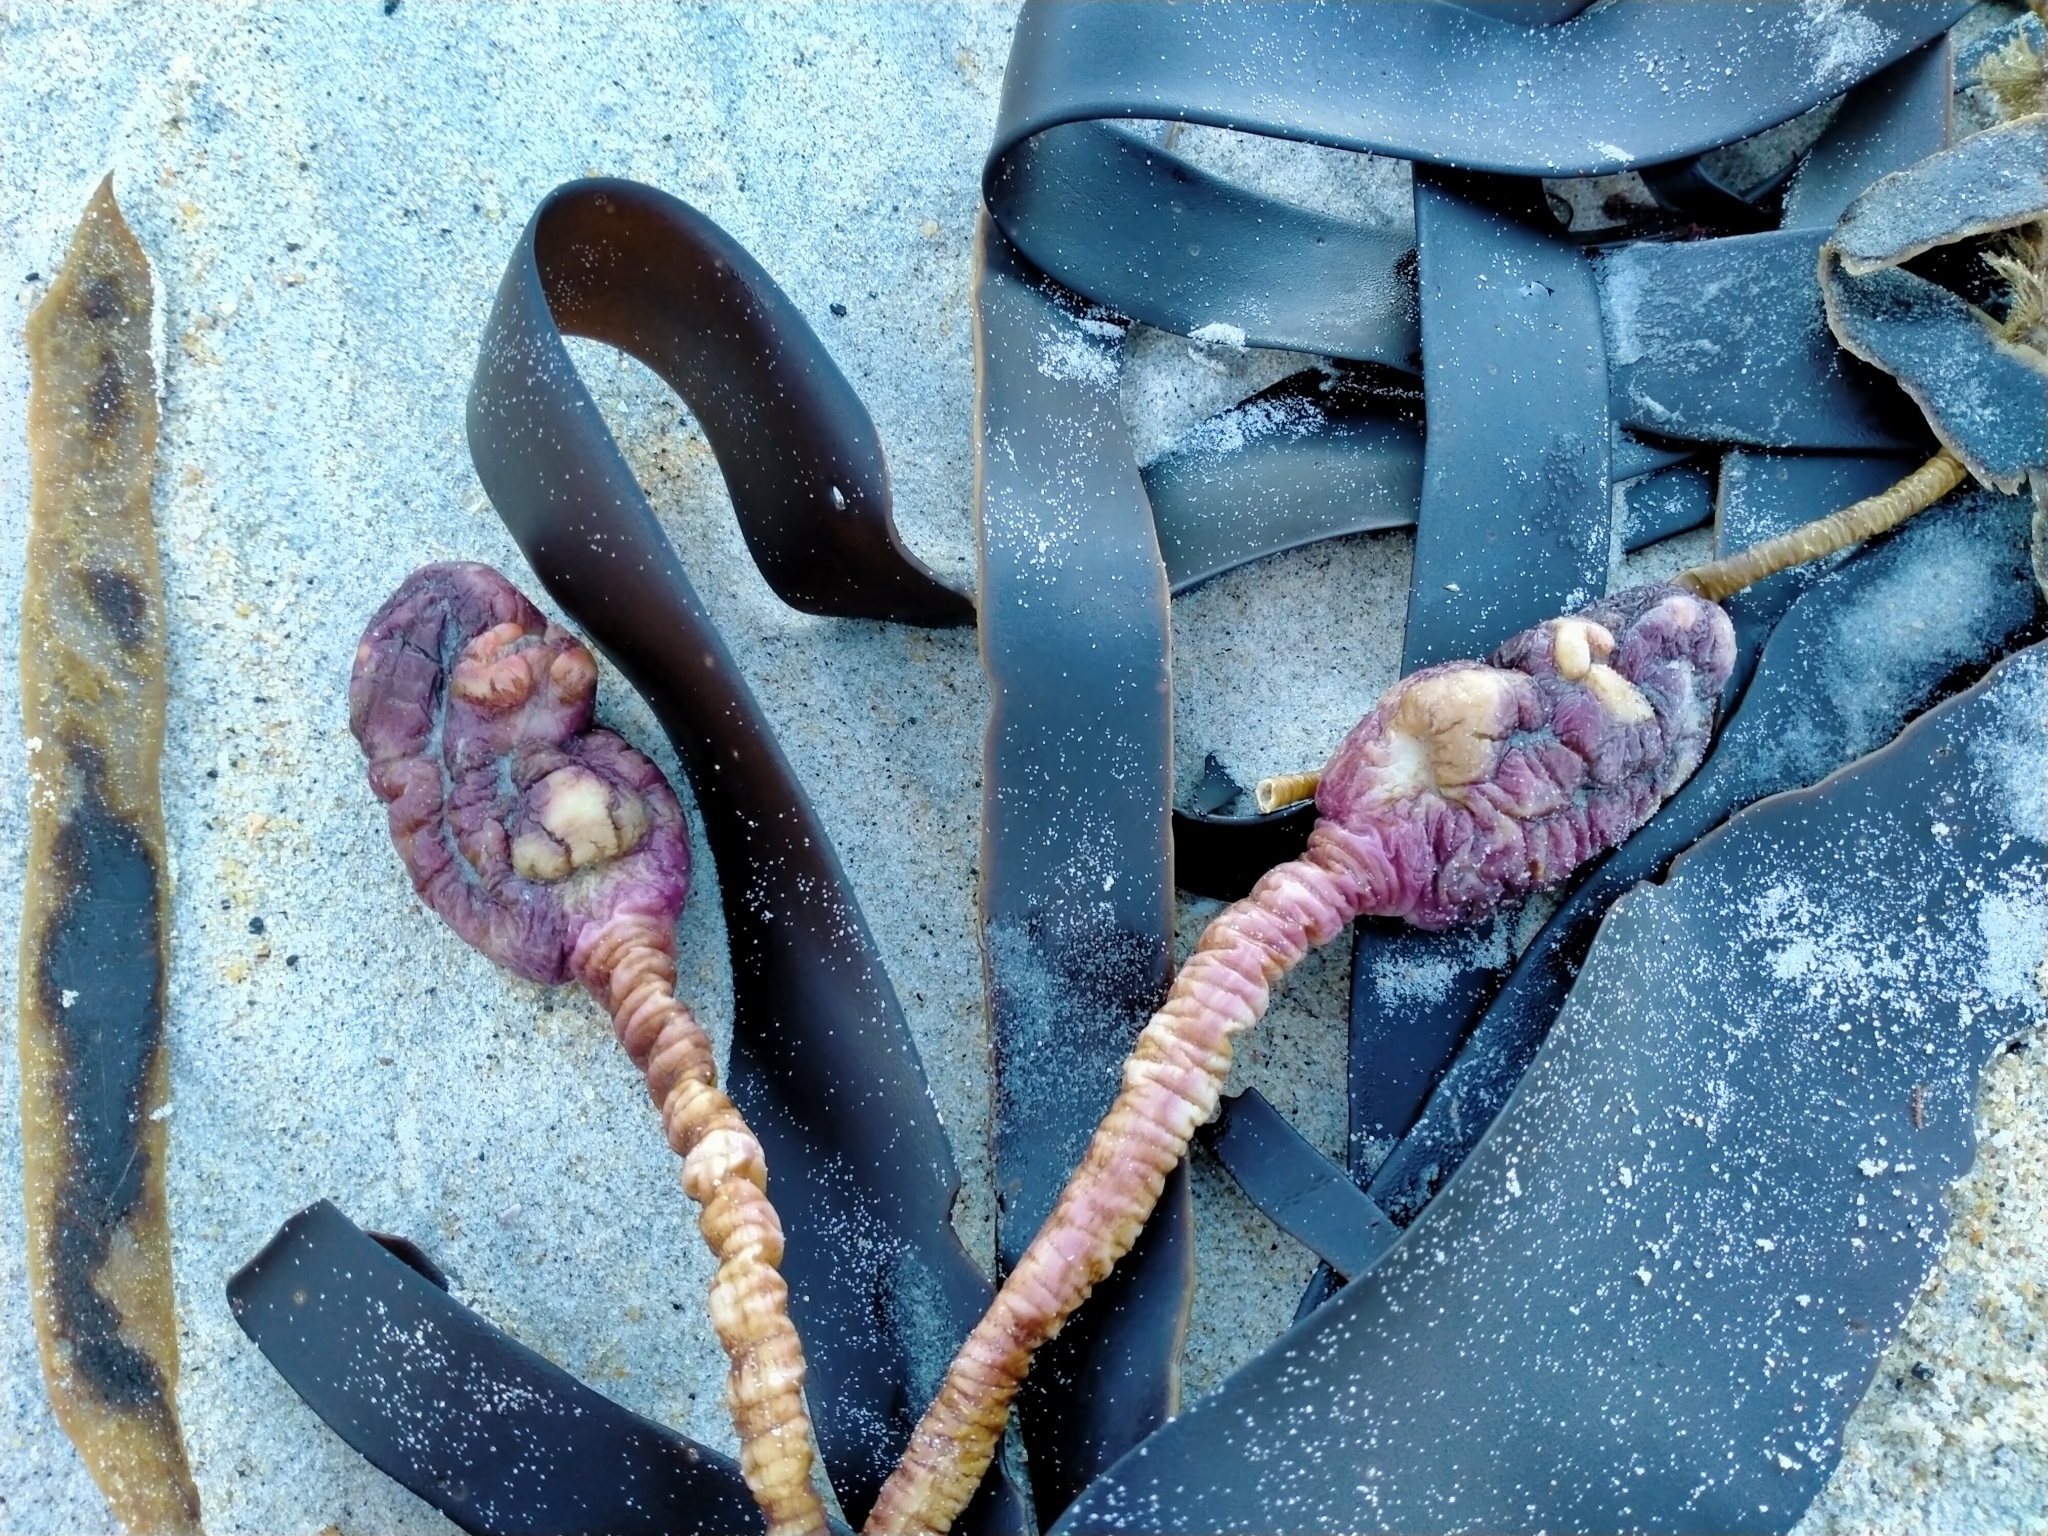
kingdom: Animalia
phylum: Chordata
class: Ascidiacea
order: Stolidobranchia
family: Pyuridae
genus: Pyura
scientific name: Pyura pachydermatina
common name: Sea tulip
